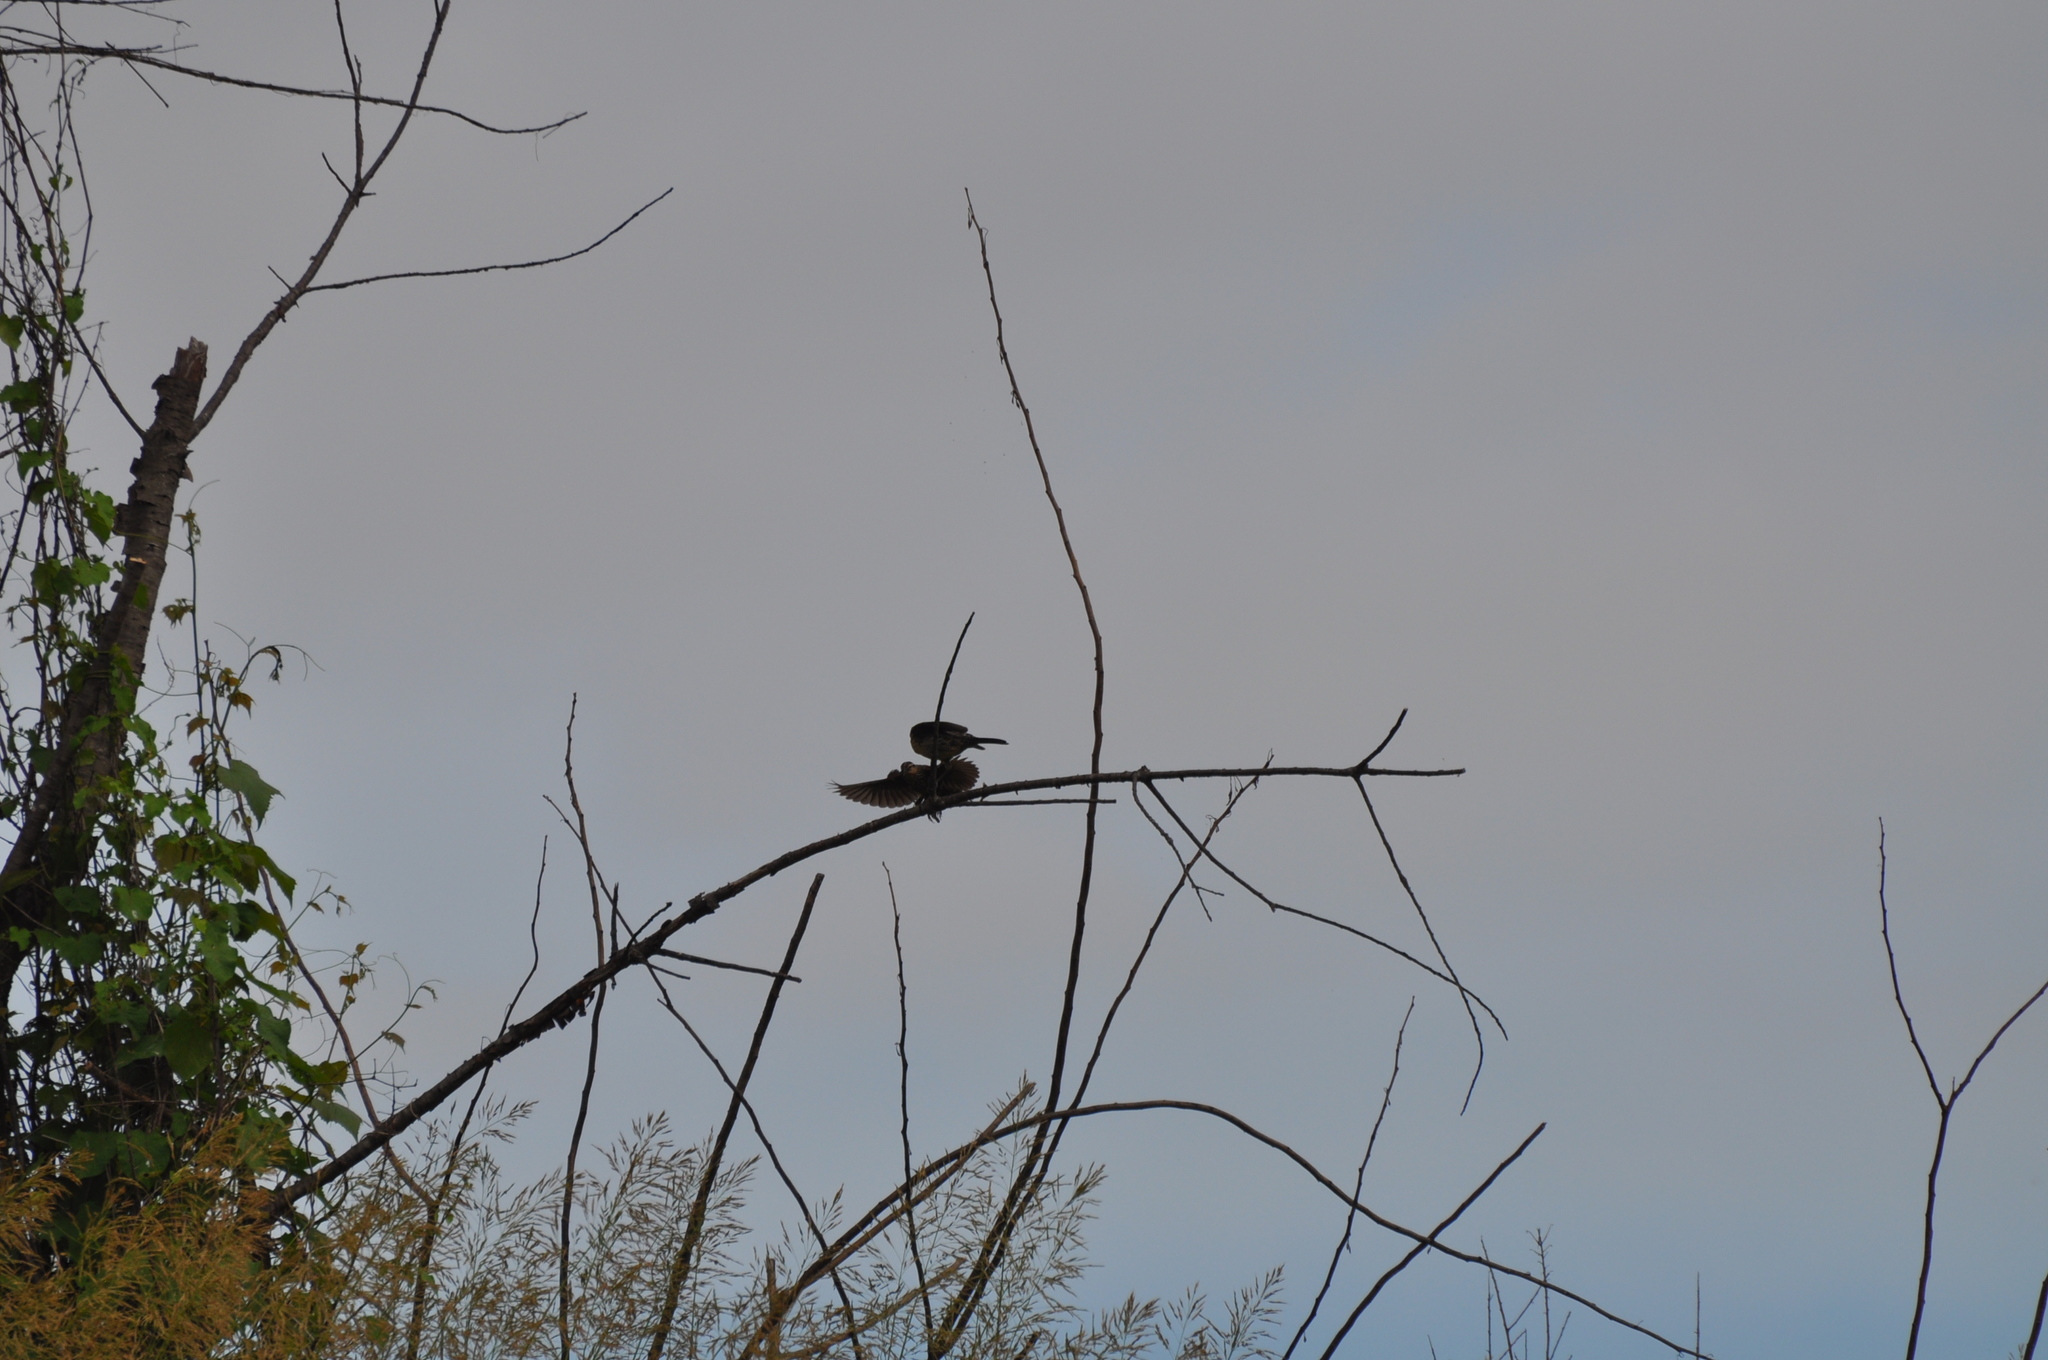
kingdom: Animalia
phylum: Chordata
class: Aves
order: Passeriformes
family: Icteridae
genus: Agelaius
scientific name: Agelaius phoeniceus
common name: Red-winged blackbird
